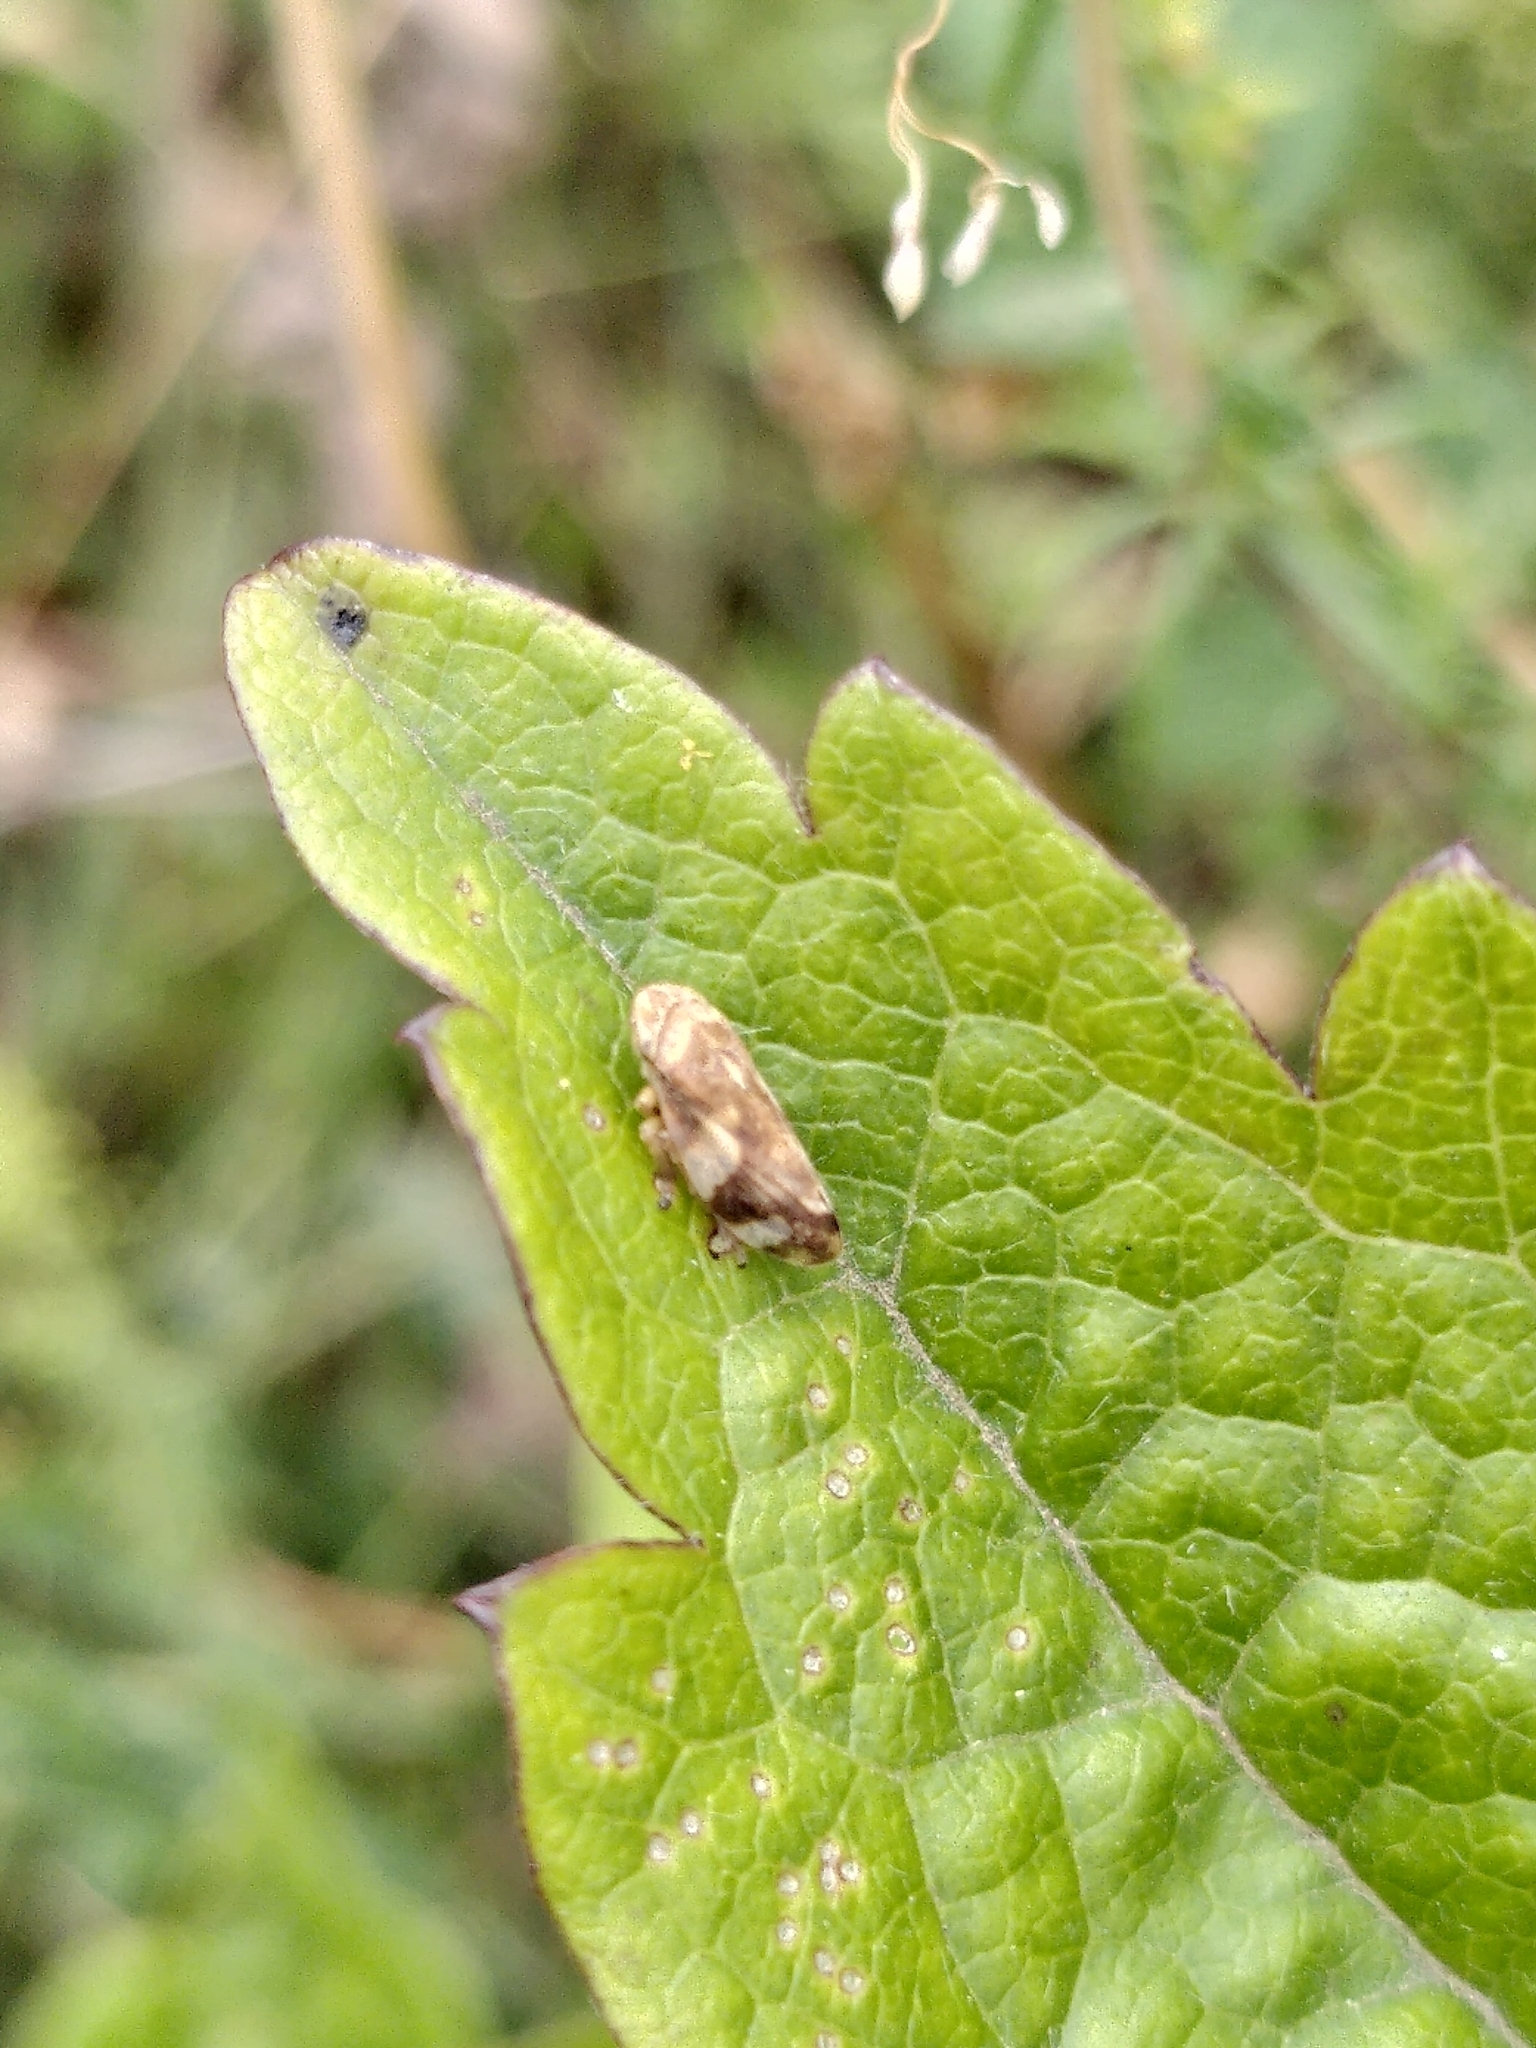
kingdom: Animalia
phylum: Arthropoda
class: Insecta
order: Hemiptera
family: Aphrophoridae
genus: Philaenus
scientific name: Philaenus spumarius
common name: Meadow spittlebug
